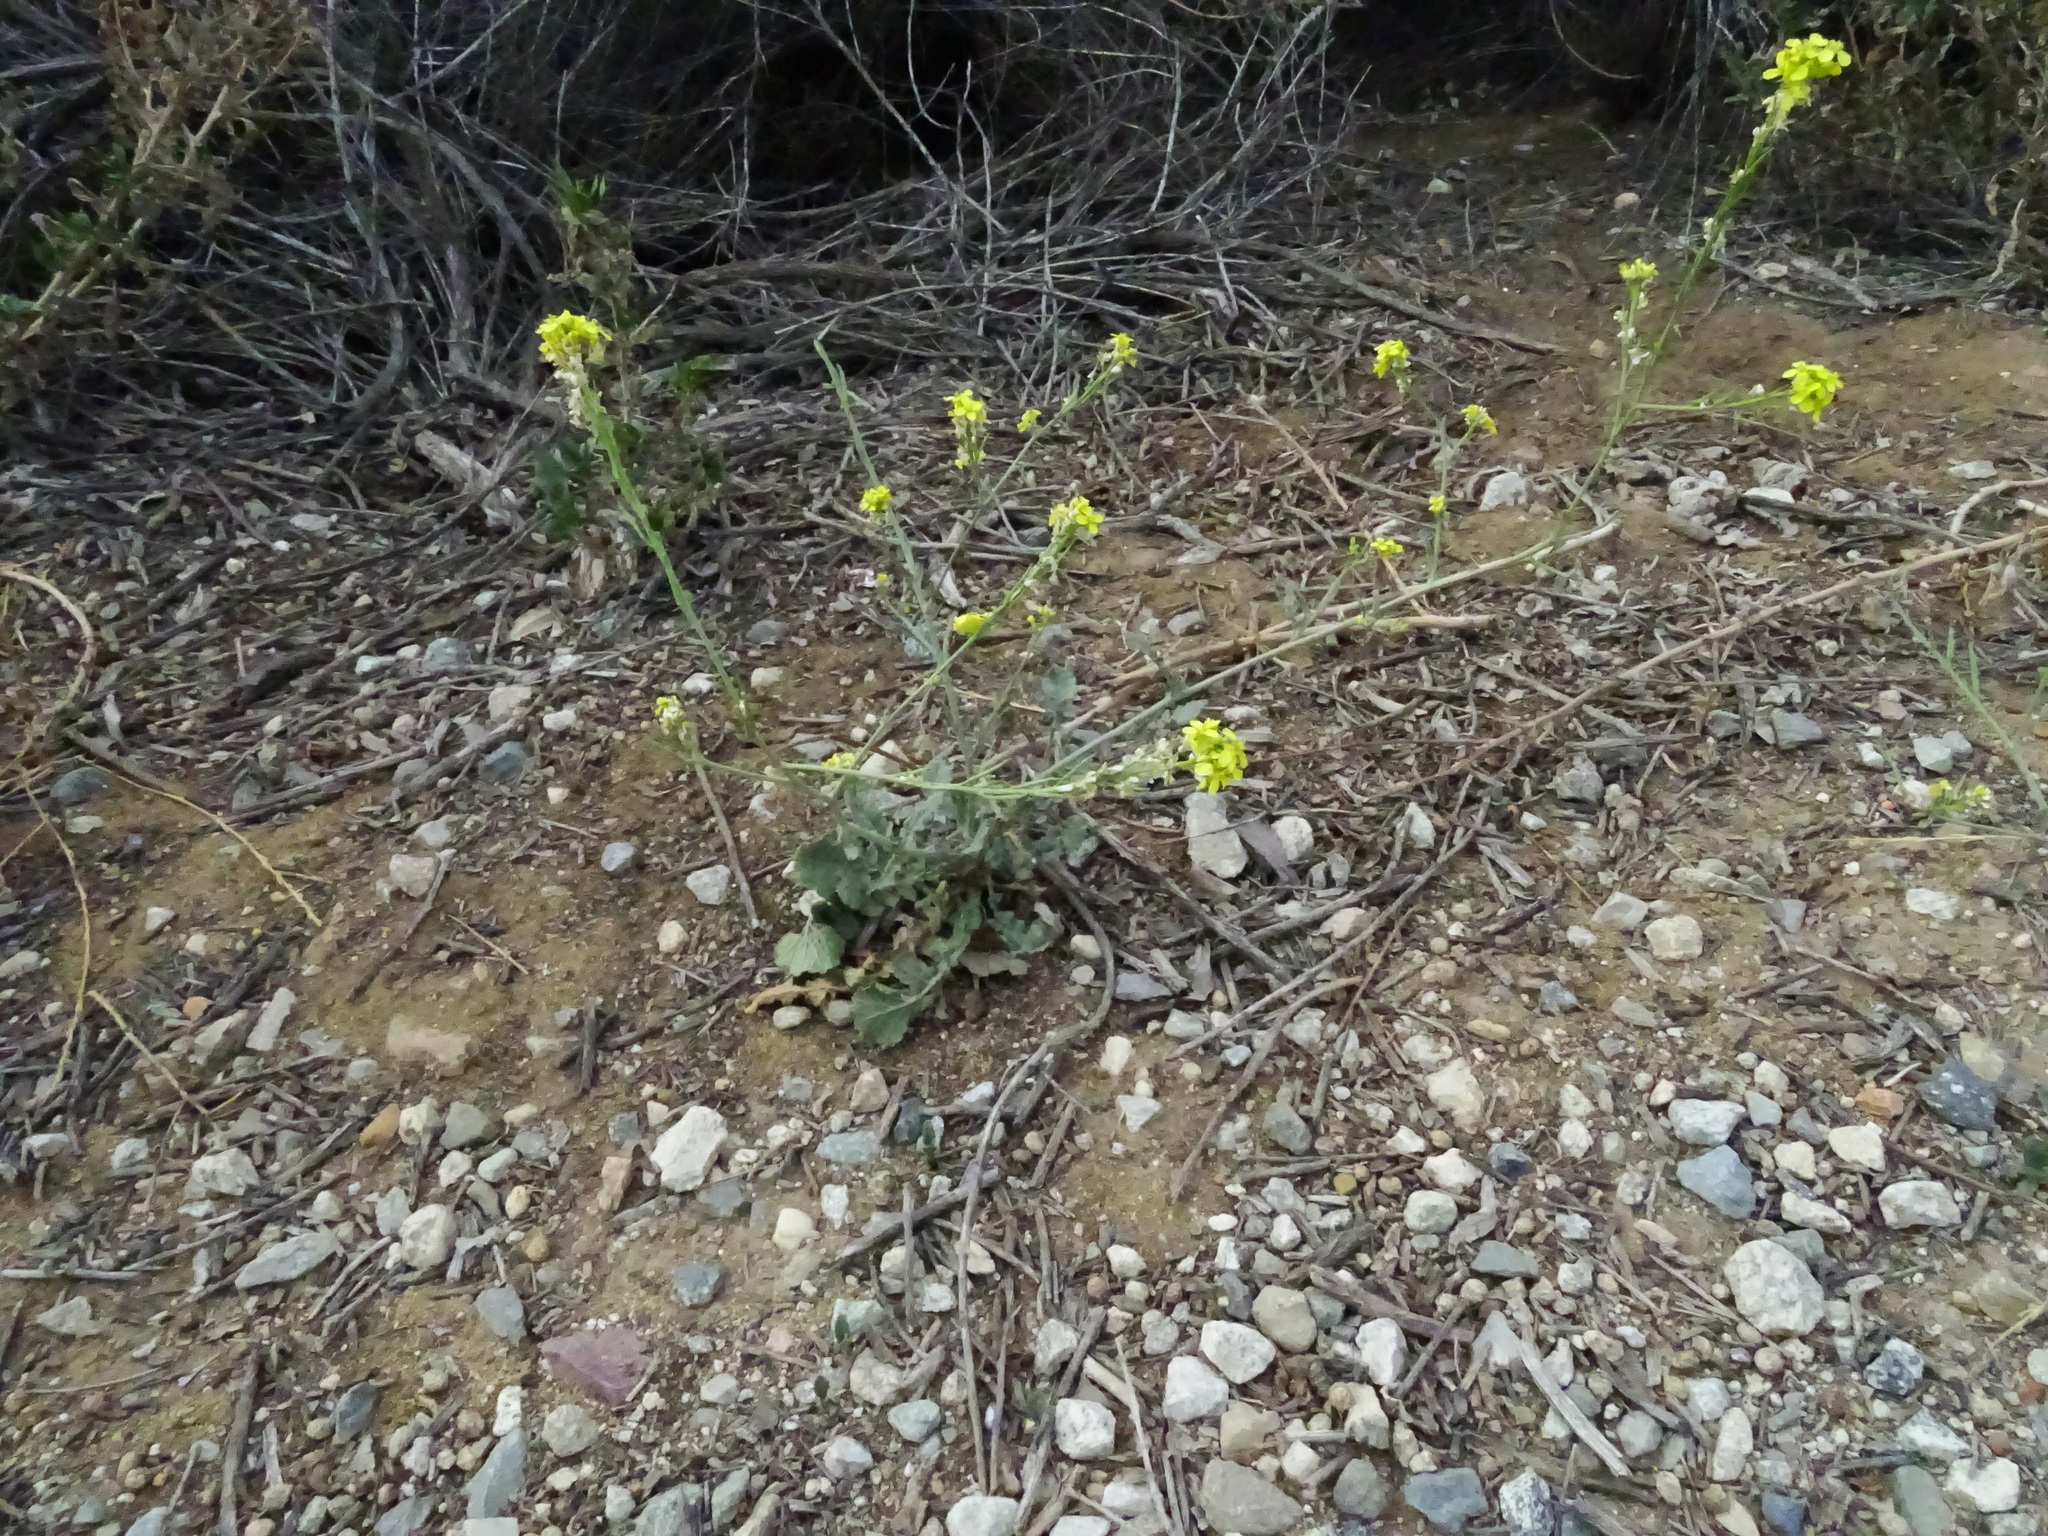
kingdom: Plantae
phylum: Tracheophyta
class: Magnoliopsida
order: Brassicales
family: Brassicaceae
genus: Hirschfeldia
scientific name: Hirschfeldia incana
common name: Hoary mustard
